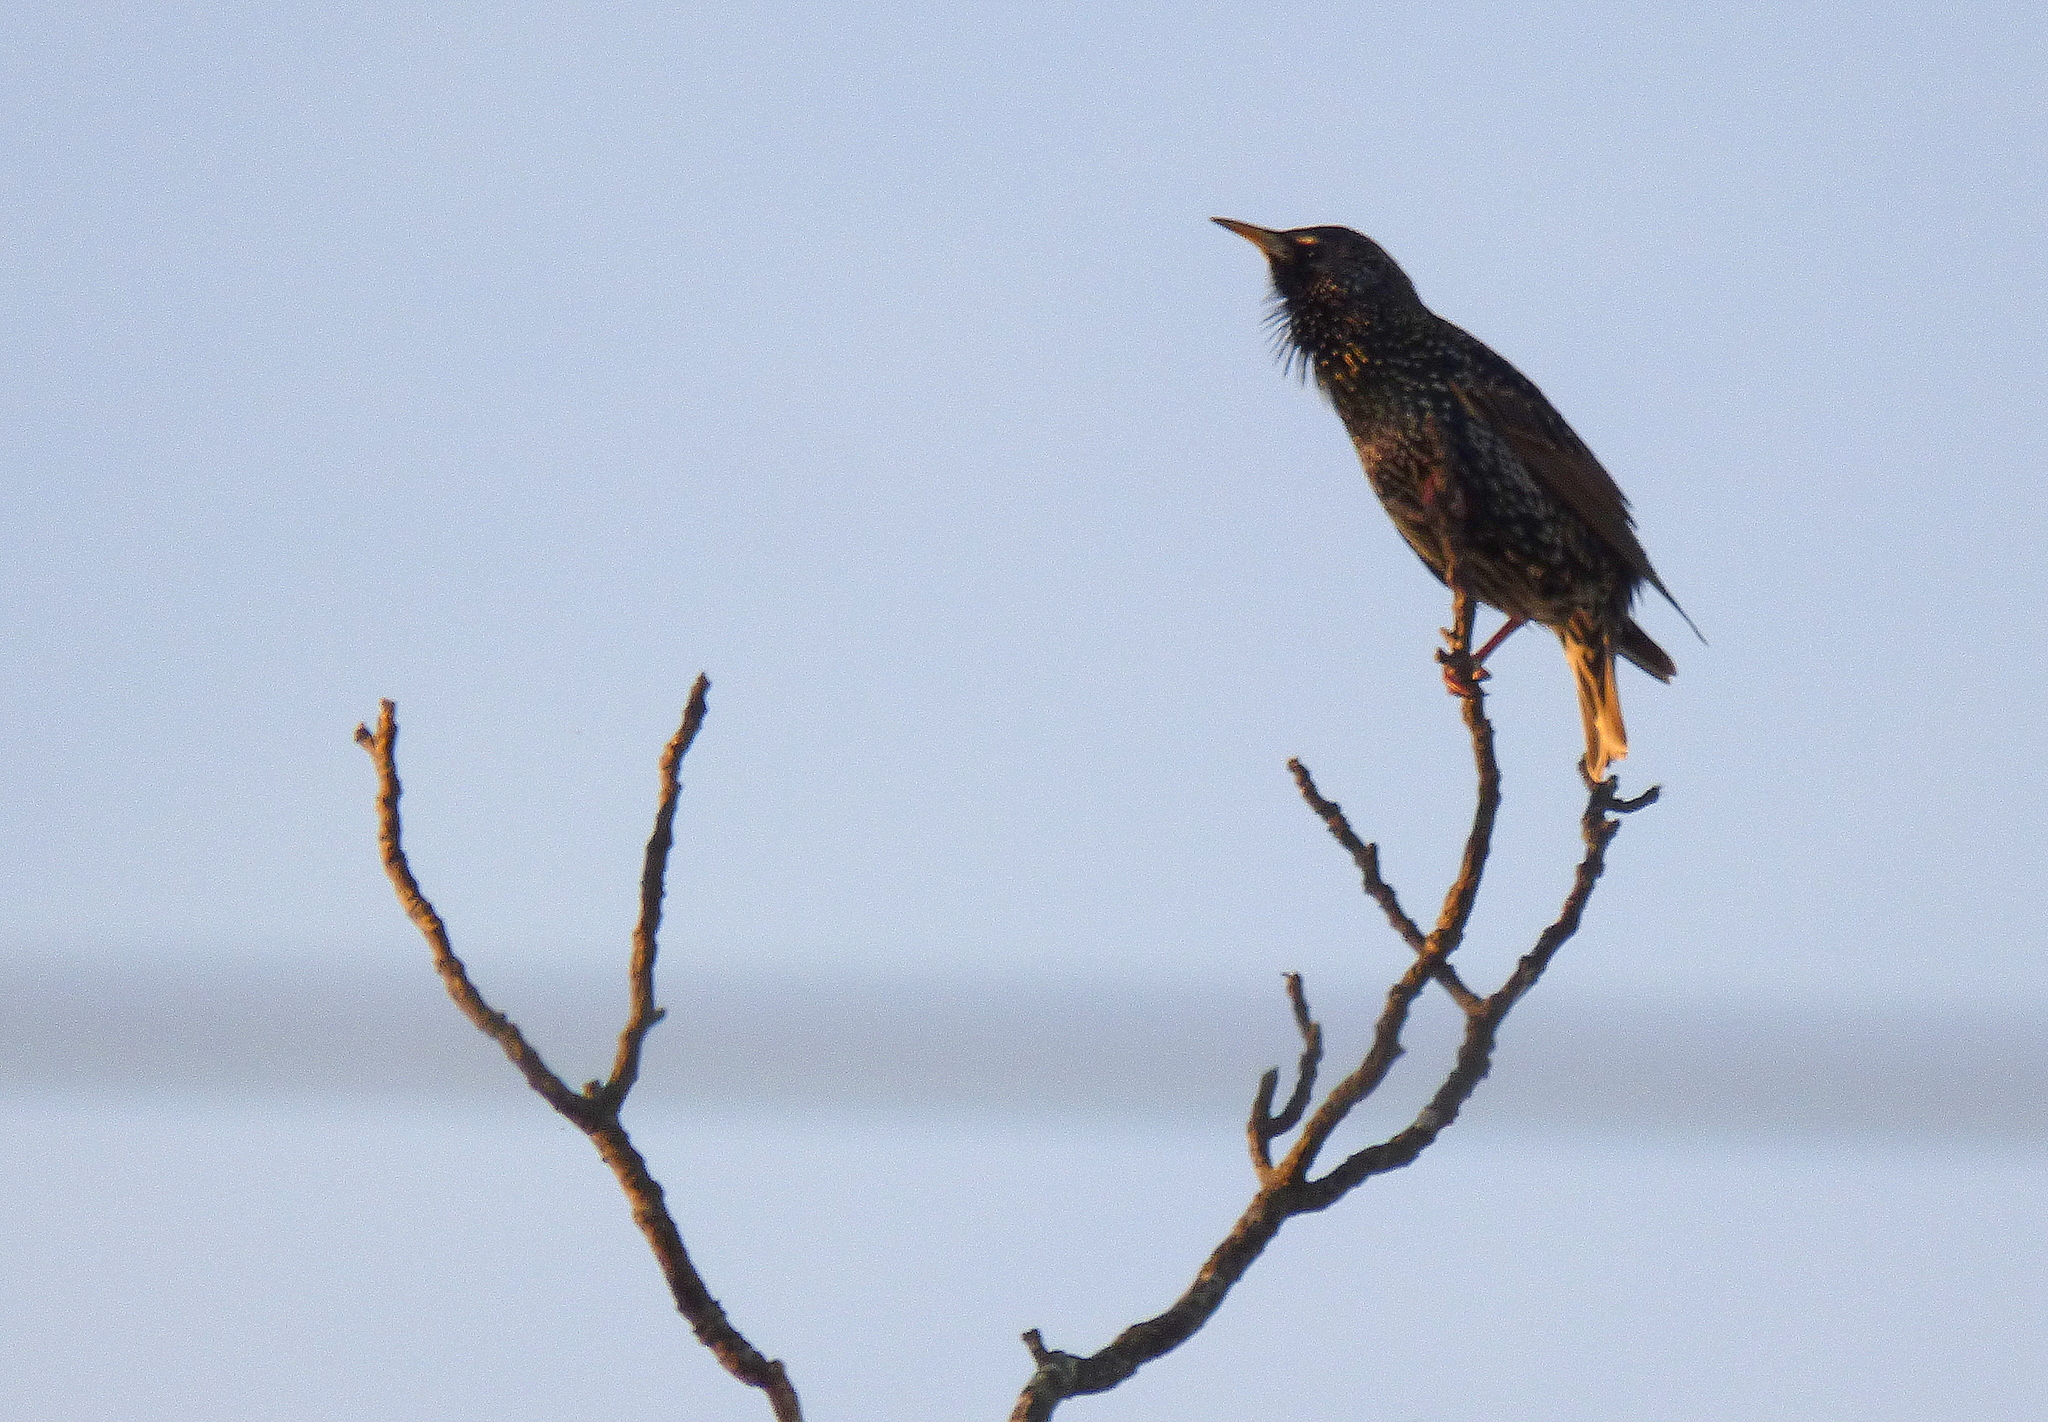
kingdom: Animalia
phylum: Chordata
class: Aves
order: Passeriformes
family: Sturnidae
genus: Sturnus
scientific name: Sturnus vulgaris
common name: Common starling
